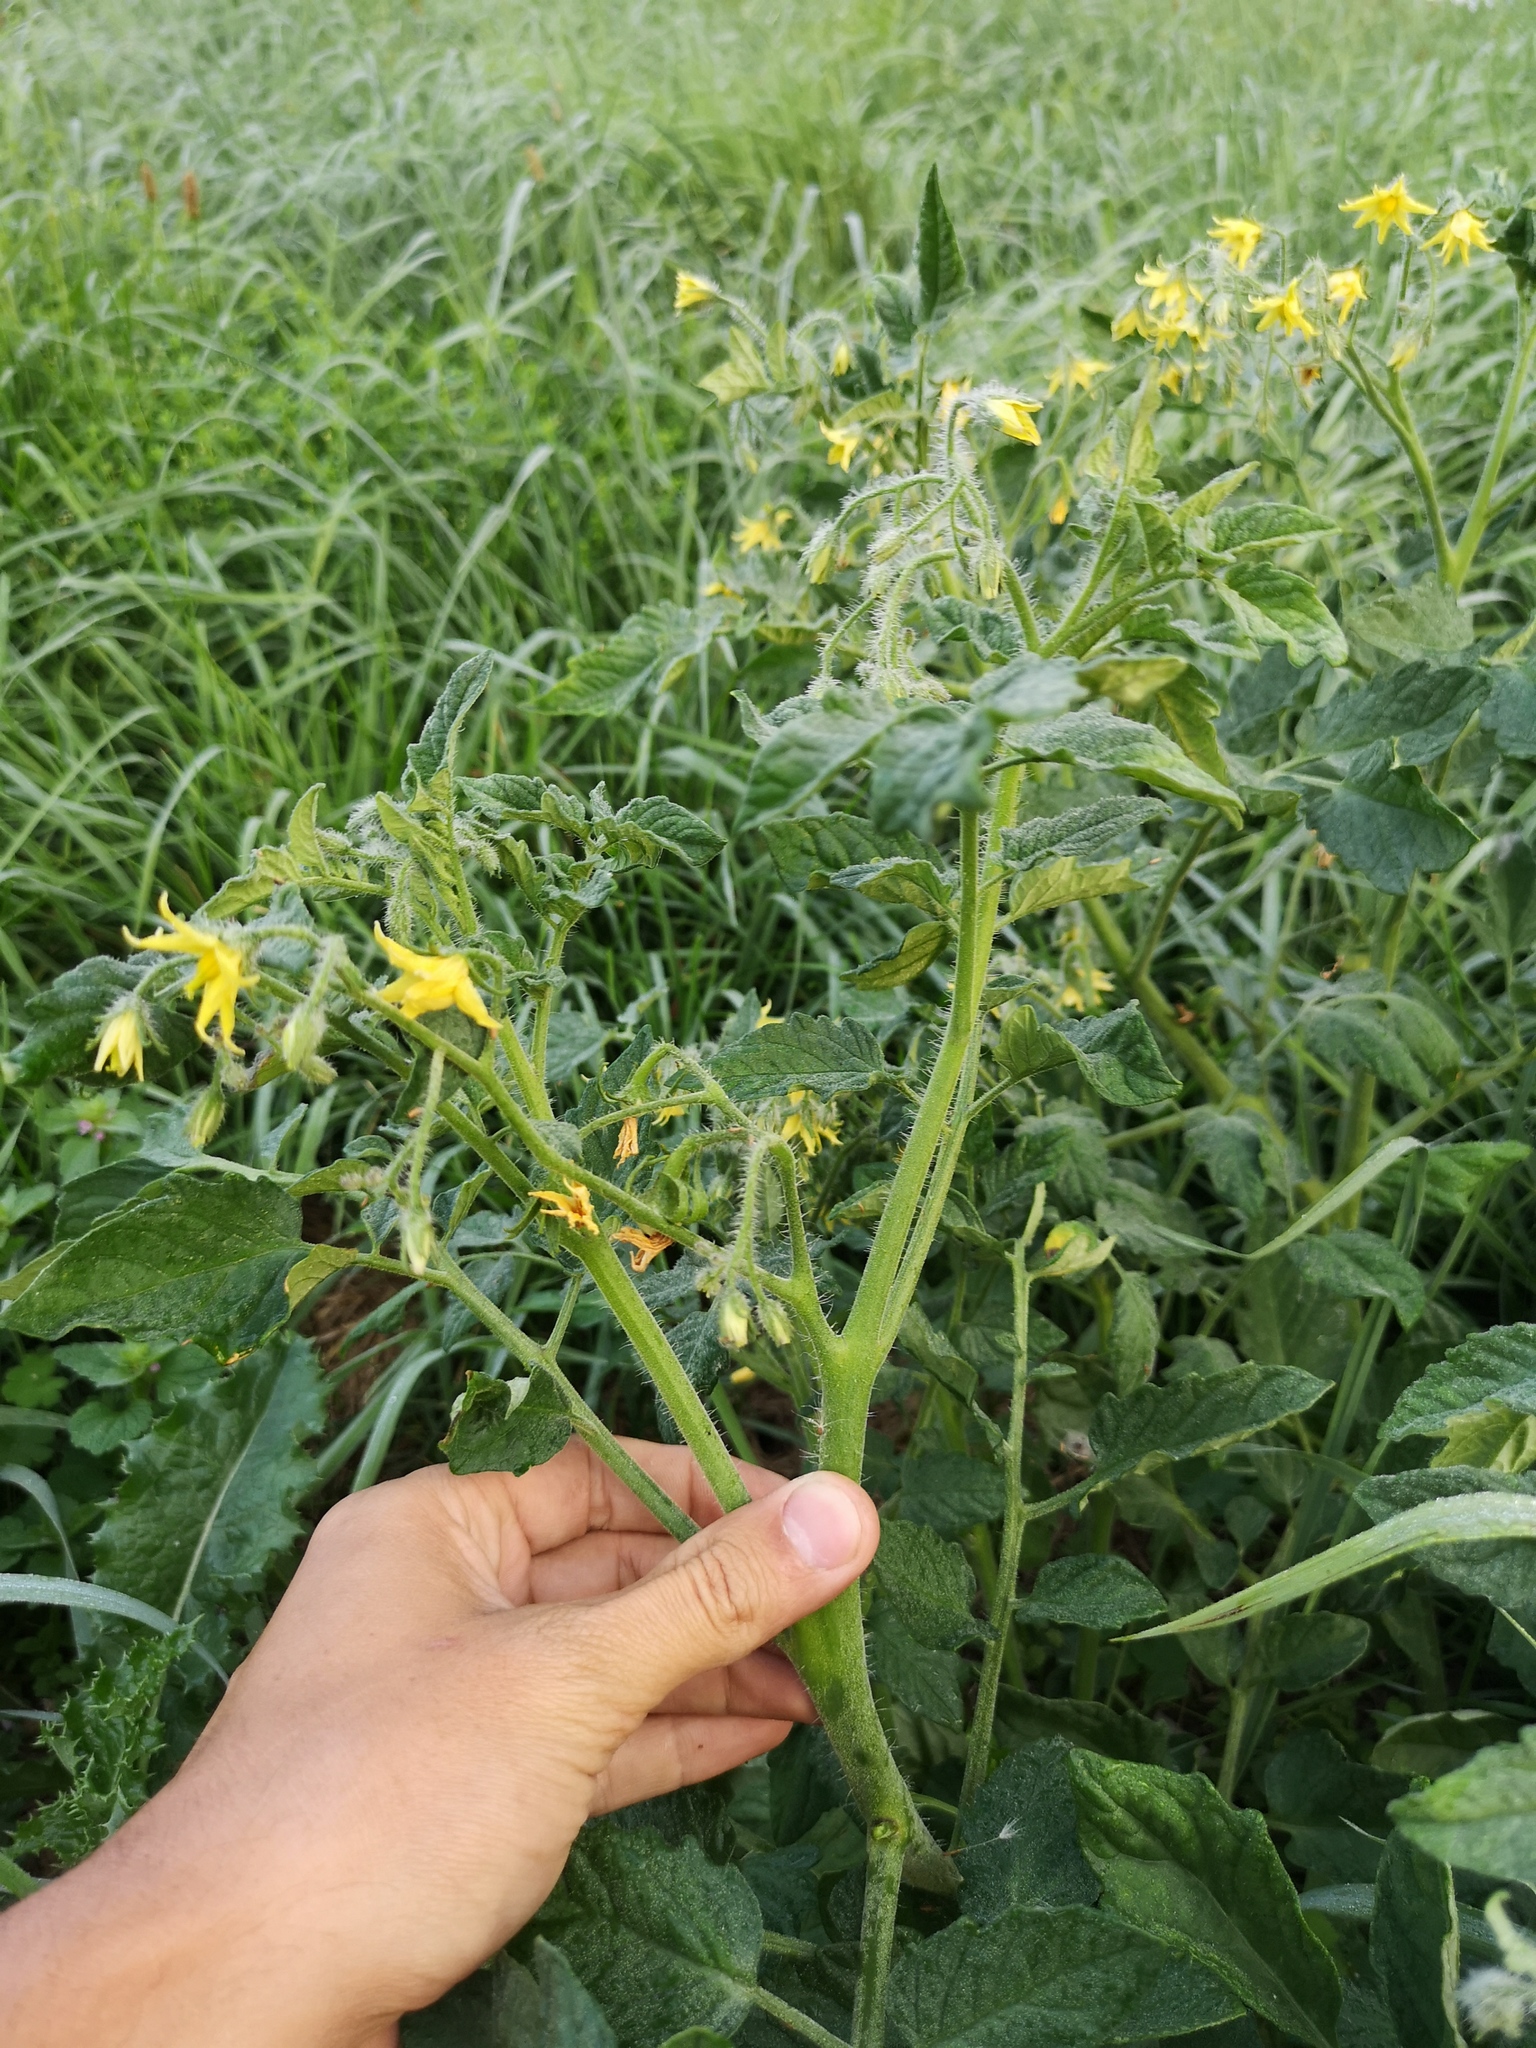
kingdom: Plantae
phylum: Tracheophyta
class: Magnoliopsida
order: Solanales
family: Solanaceae
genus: Solanum
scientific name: Solanum lycopersicum
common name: Garden tomato
